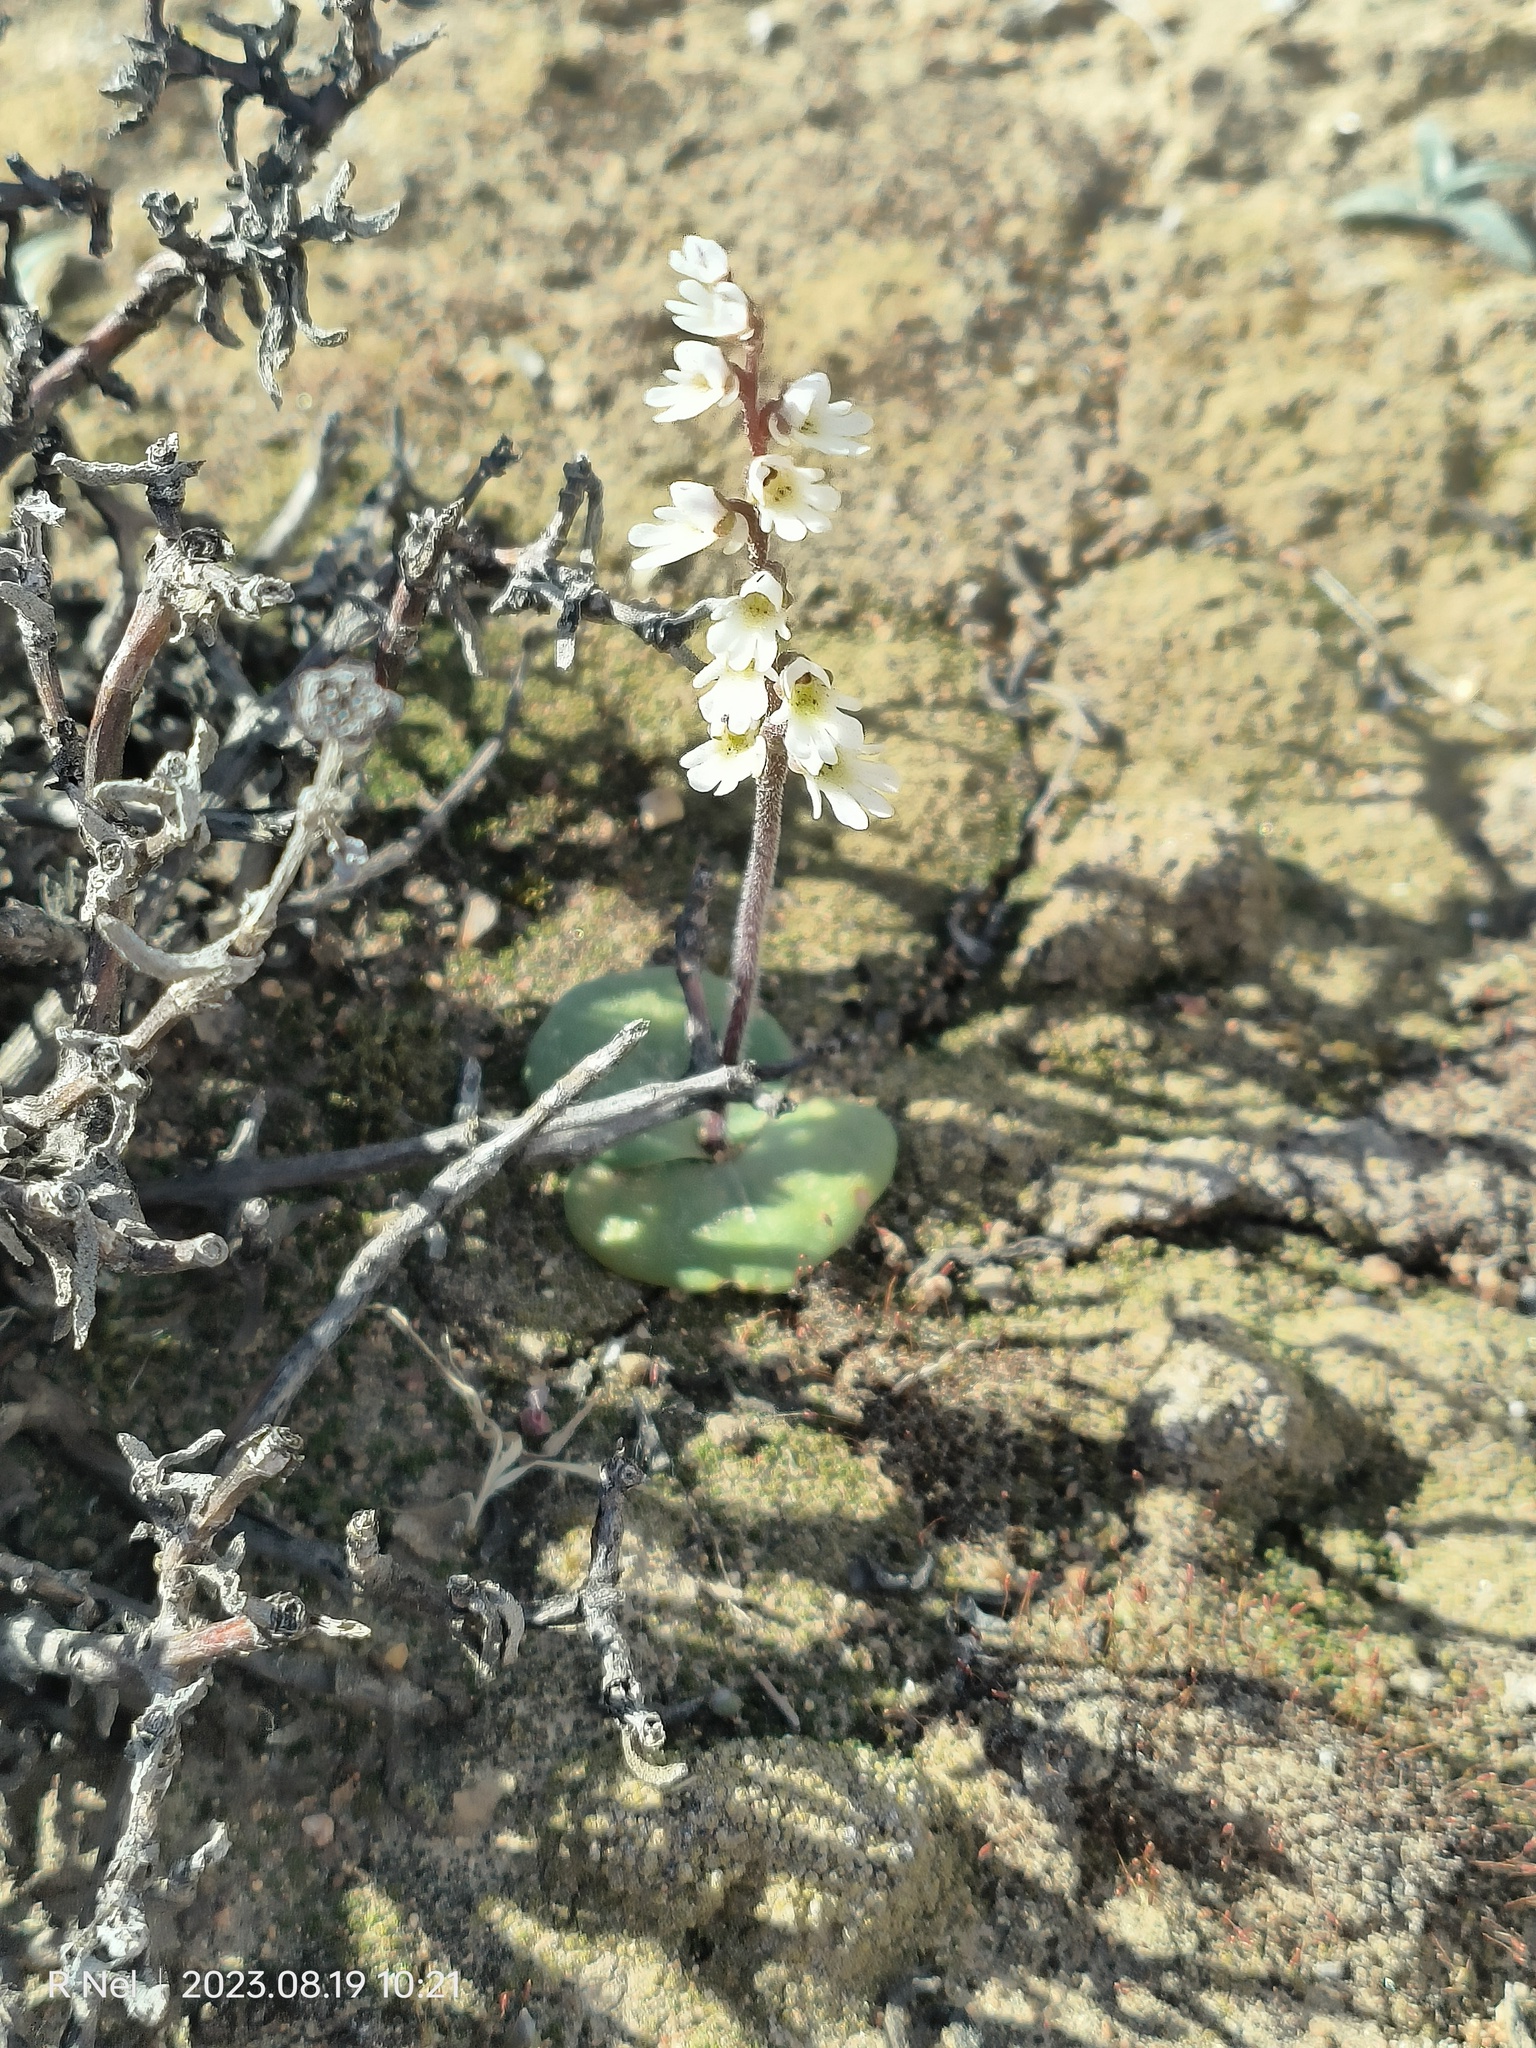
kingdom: Plantae
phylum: Tracheophyta
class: Liliopsida
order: Asparagales
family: Orchidaceae
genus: Holothrix
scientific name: Holothrix aspera
